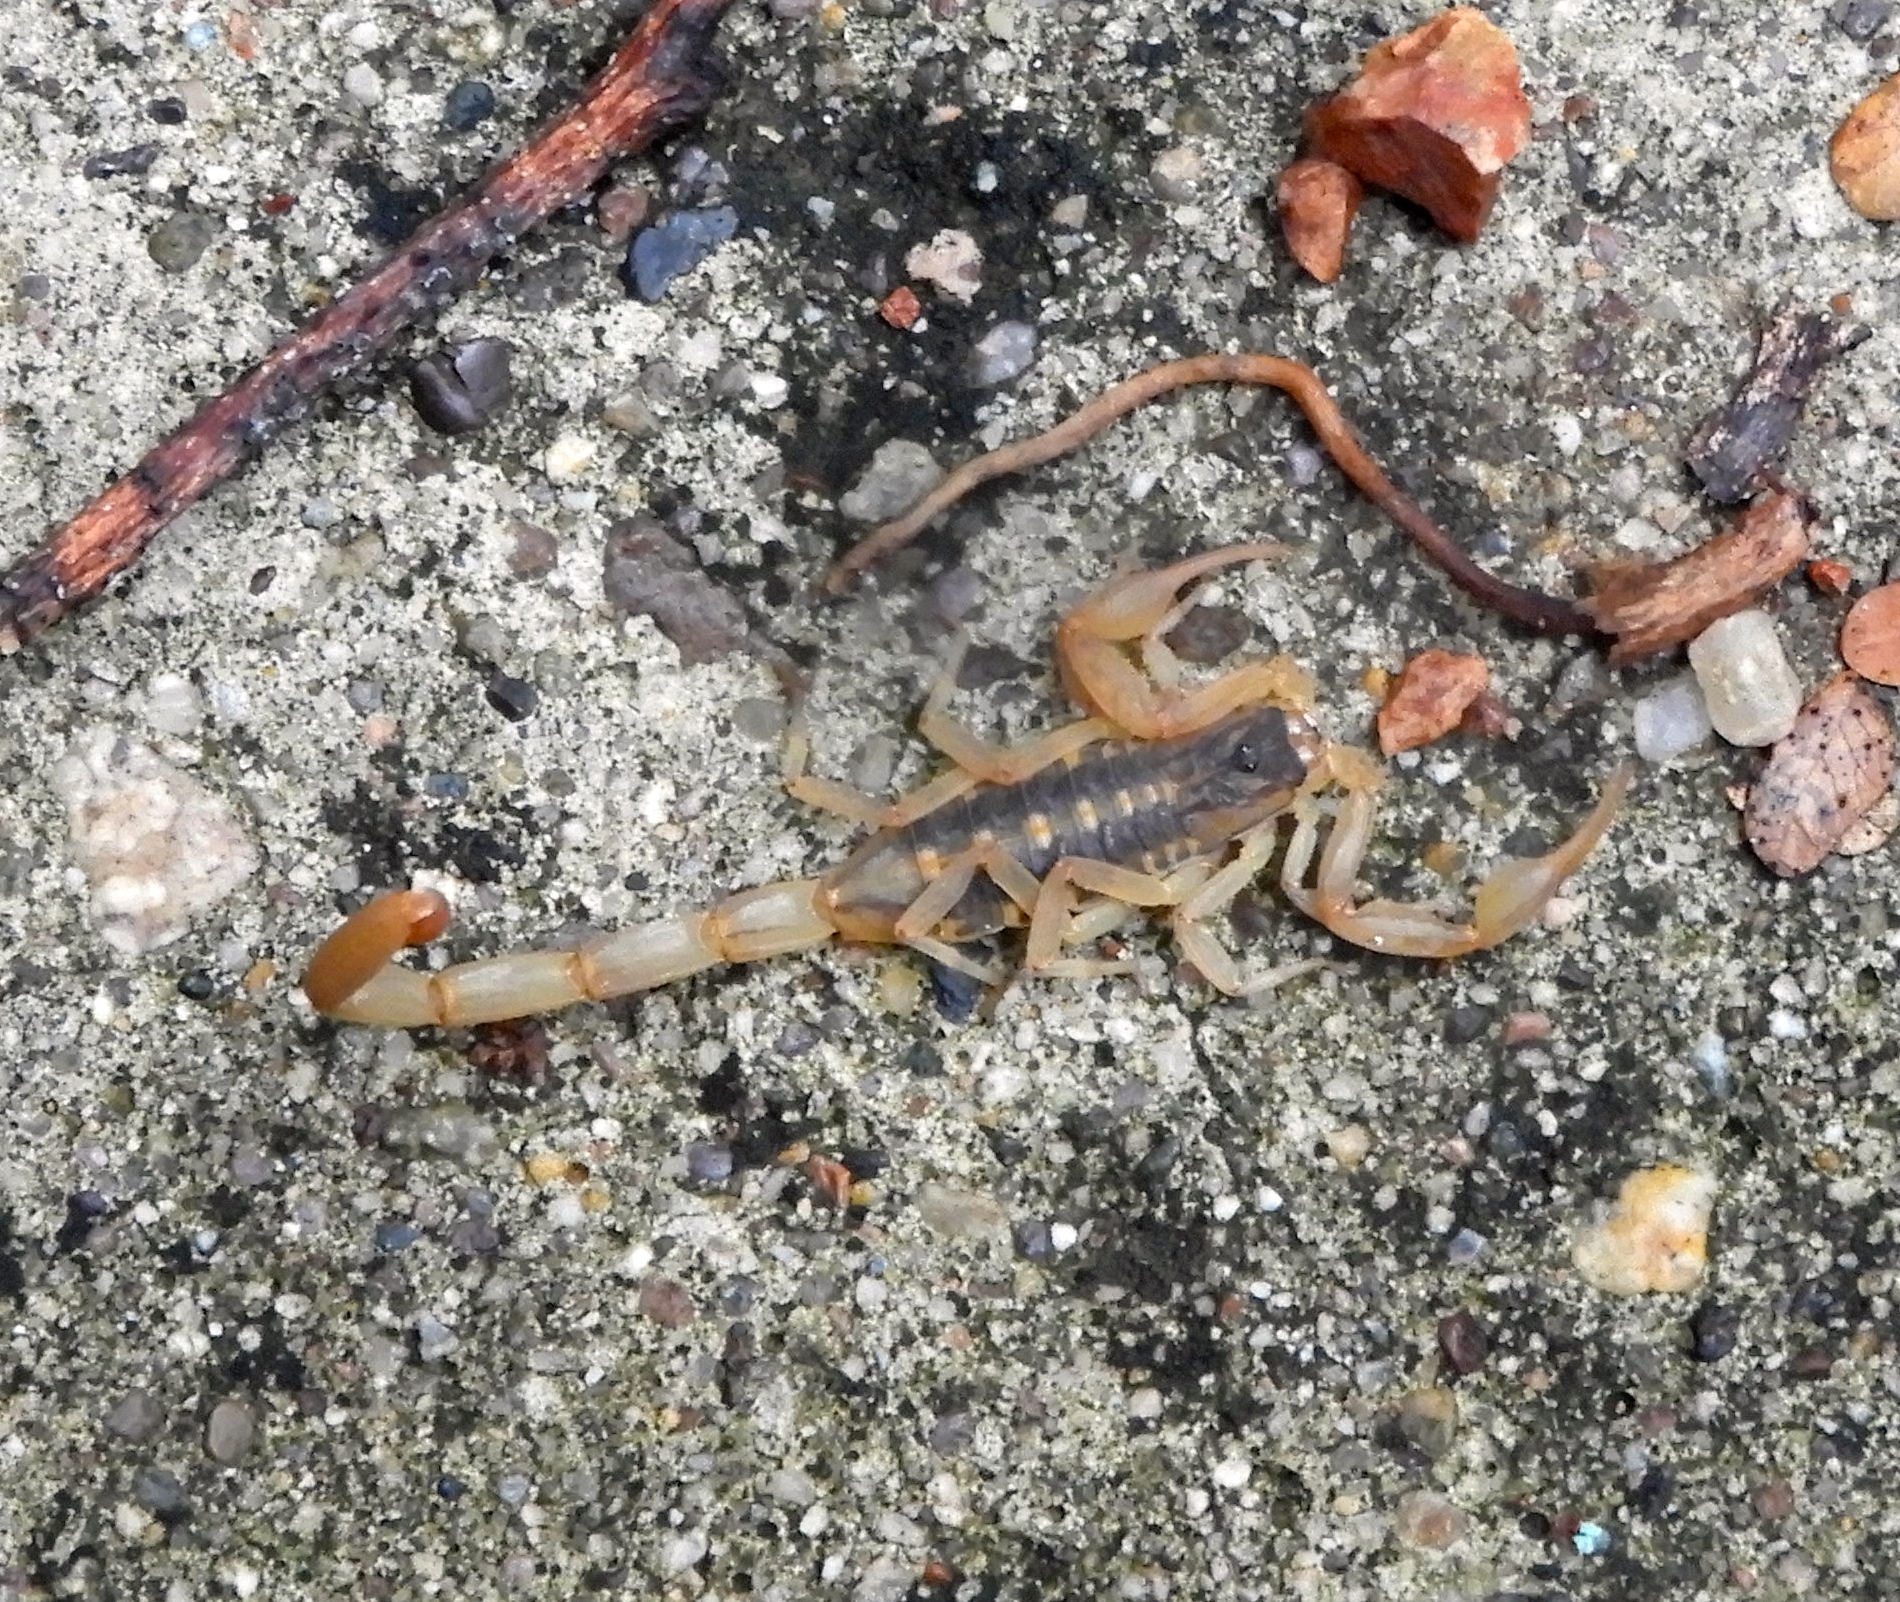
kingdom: Animalia
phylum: Arthropoda
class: Arachnida
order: Scorpiones
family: Buthidae
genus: Centruroides
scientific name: Centruroides baldazoi
